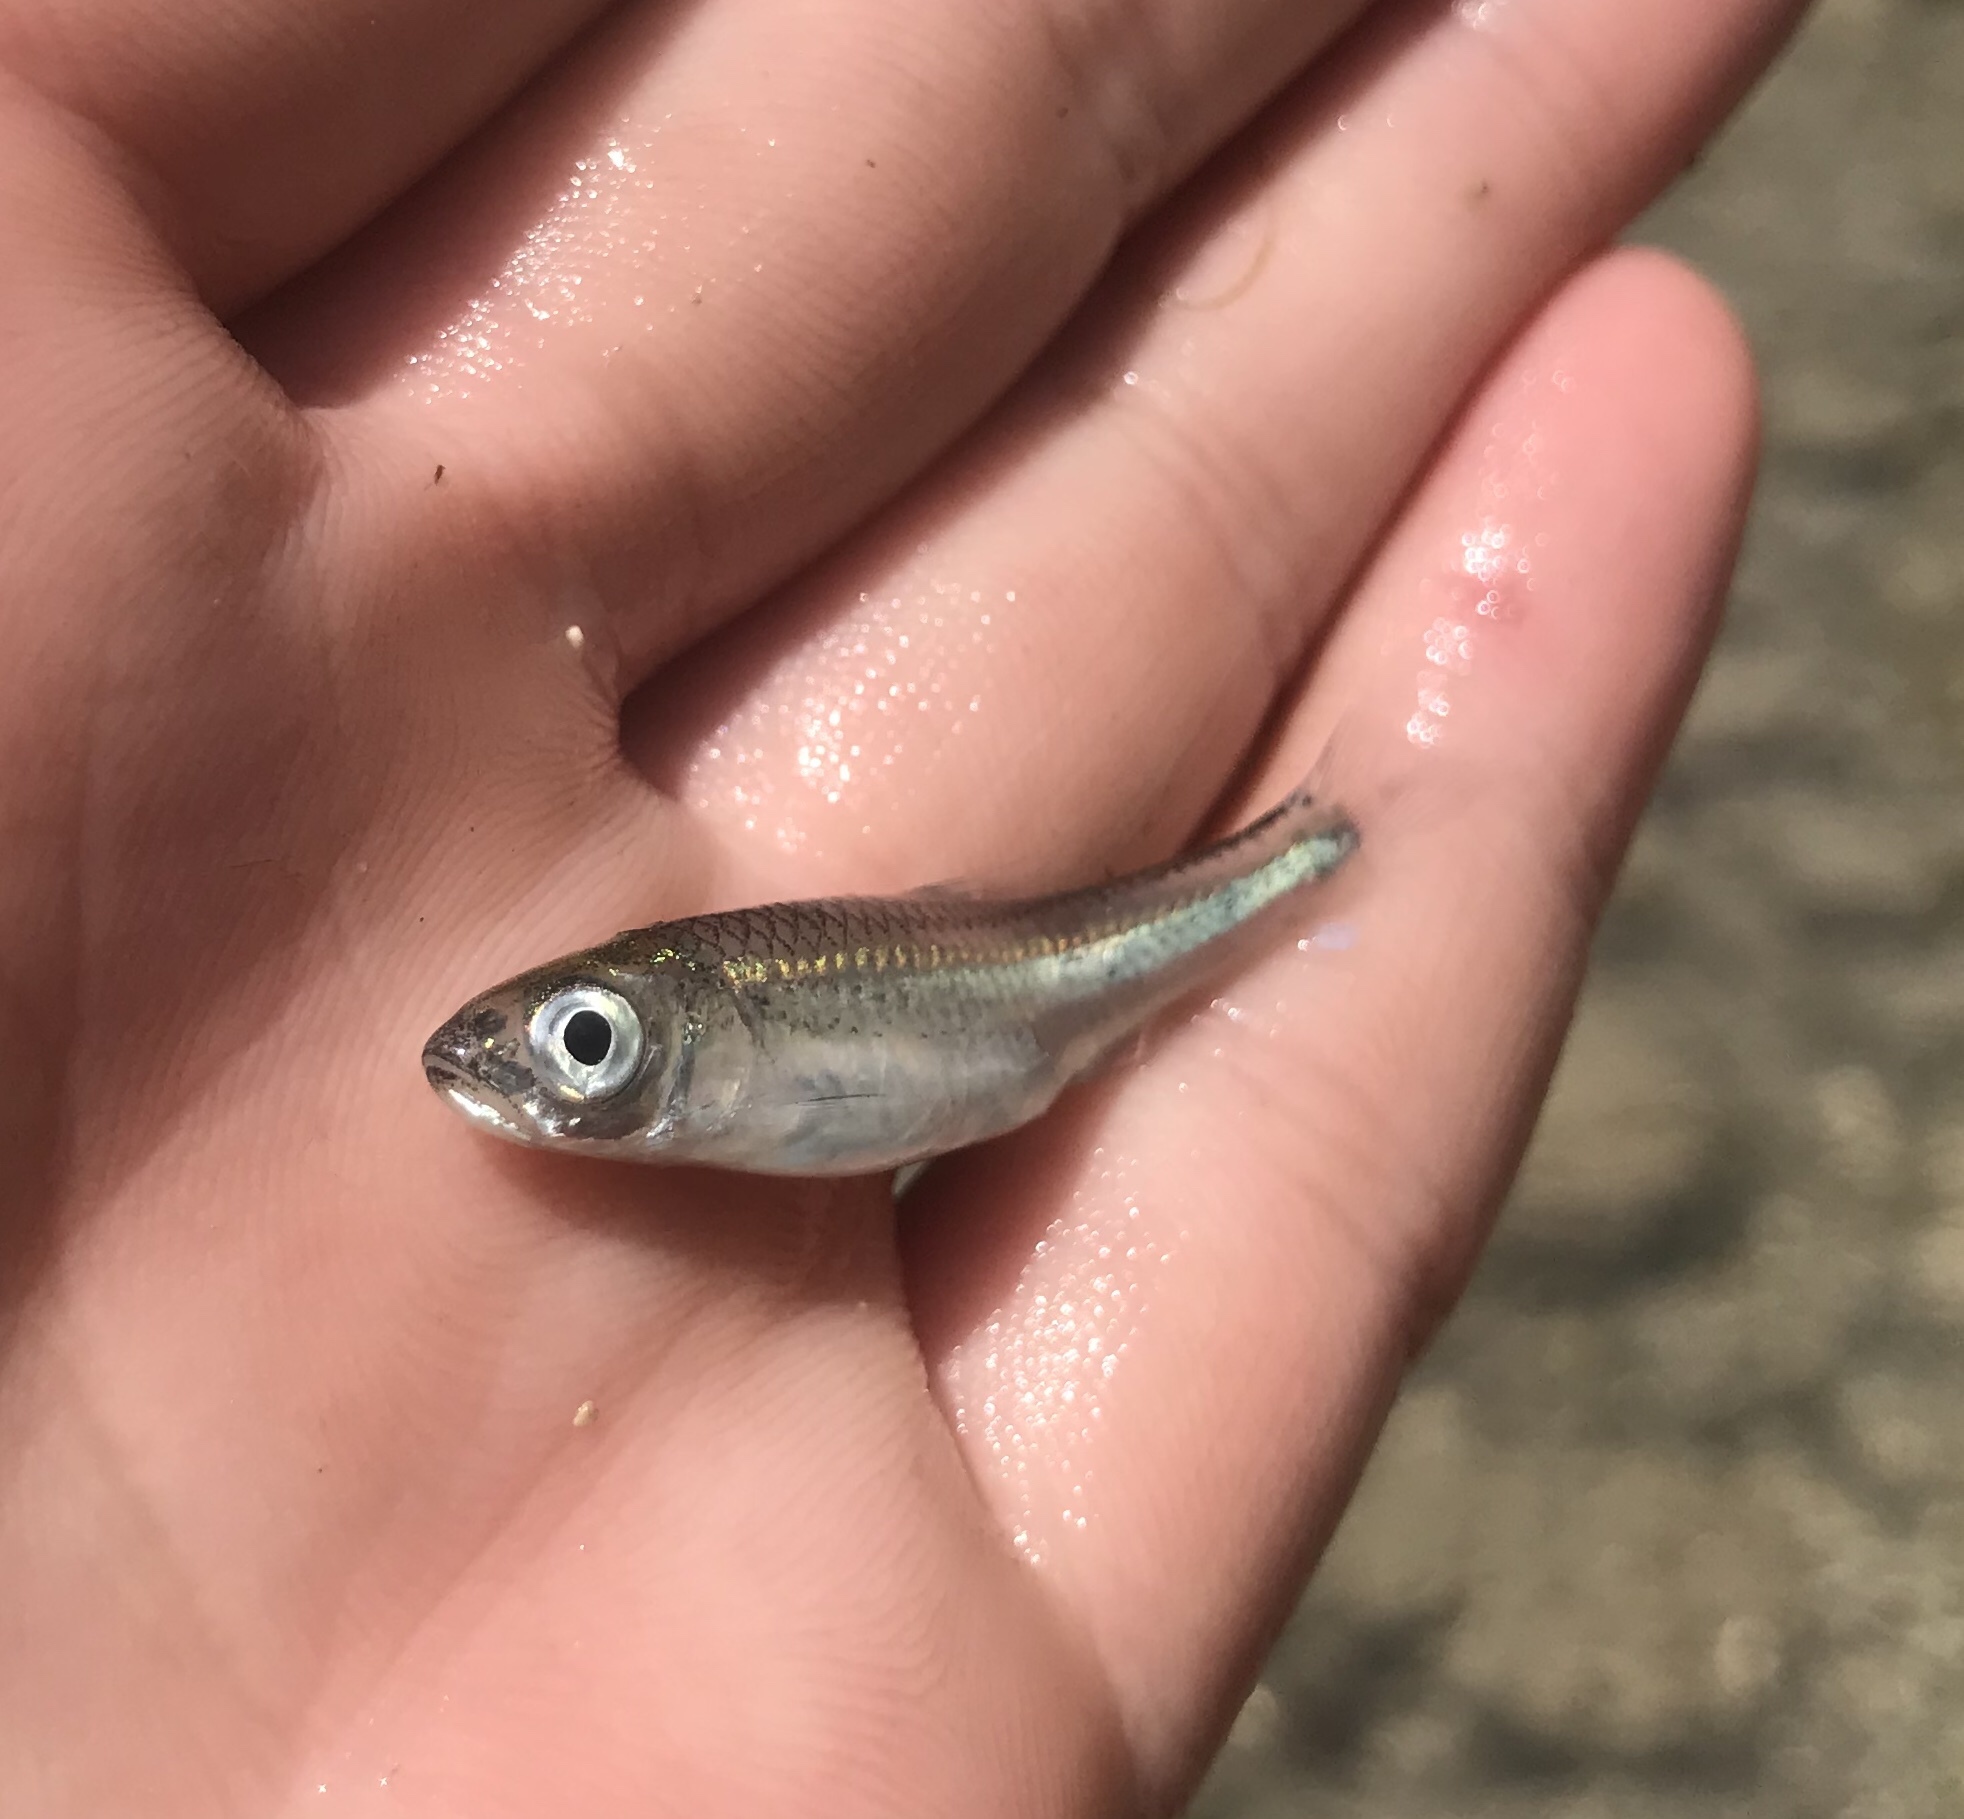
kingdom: Animalia
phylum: Chordata
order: Cypriniformes
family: Cyprinidae
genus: Notropis
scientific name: Notropis amabilis
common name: Texas shiner
